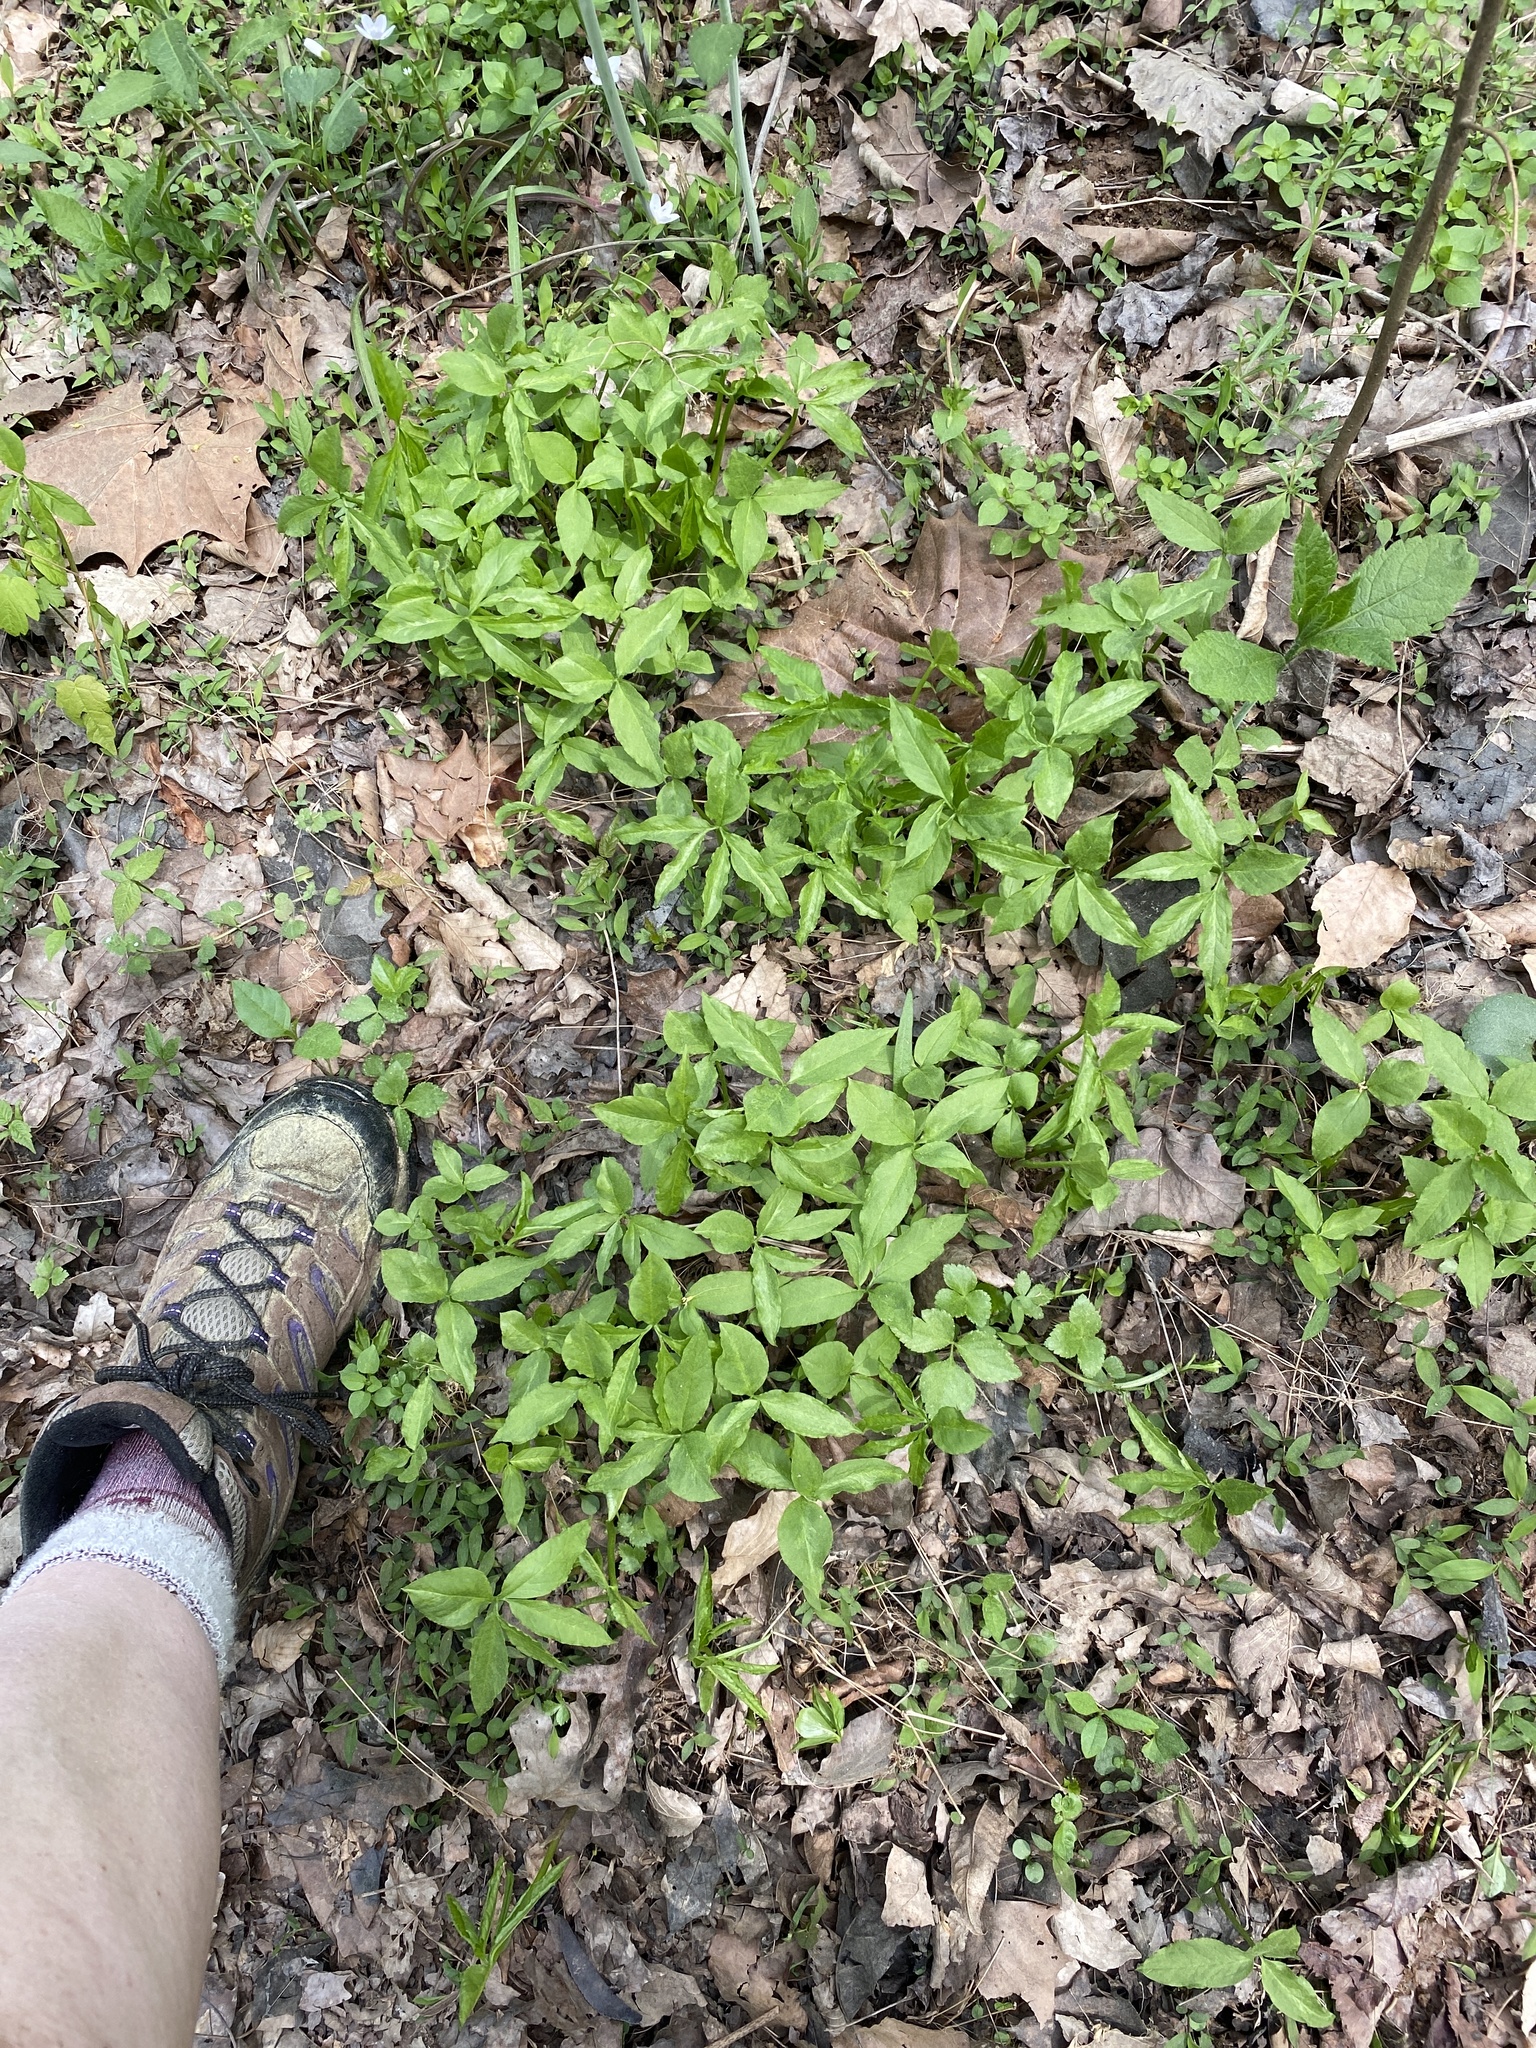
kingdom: Plantae
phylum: Tracheophyta
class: Liliopsida
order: Alismatales
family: Araceae
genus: Arisaema
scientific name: Arisaema dracontium
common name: Dragon-arum
